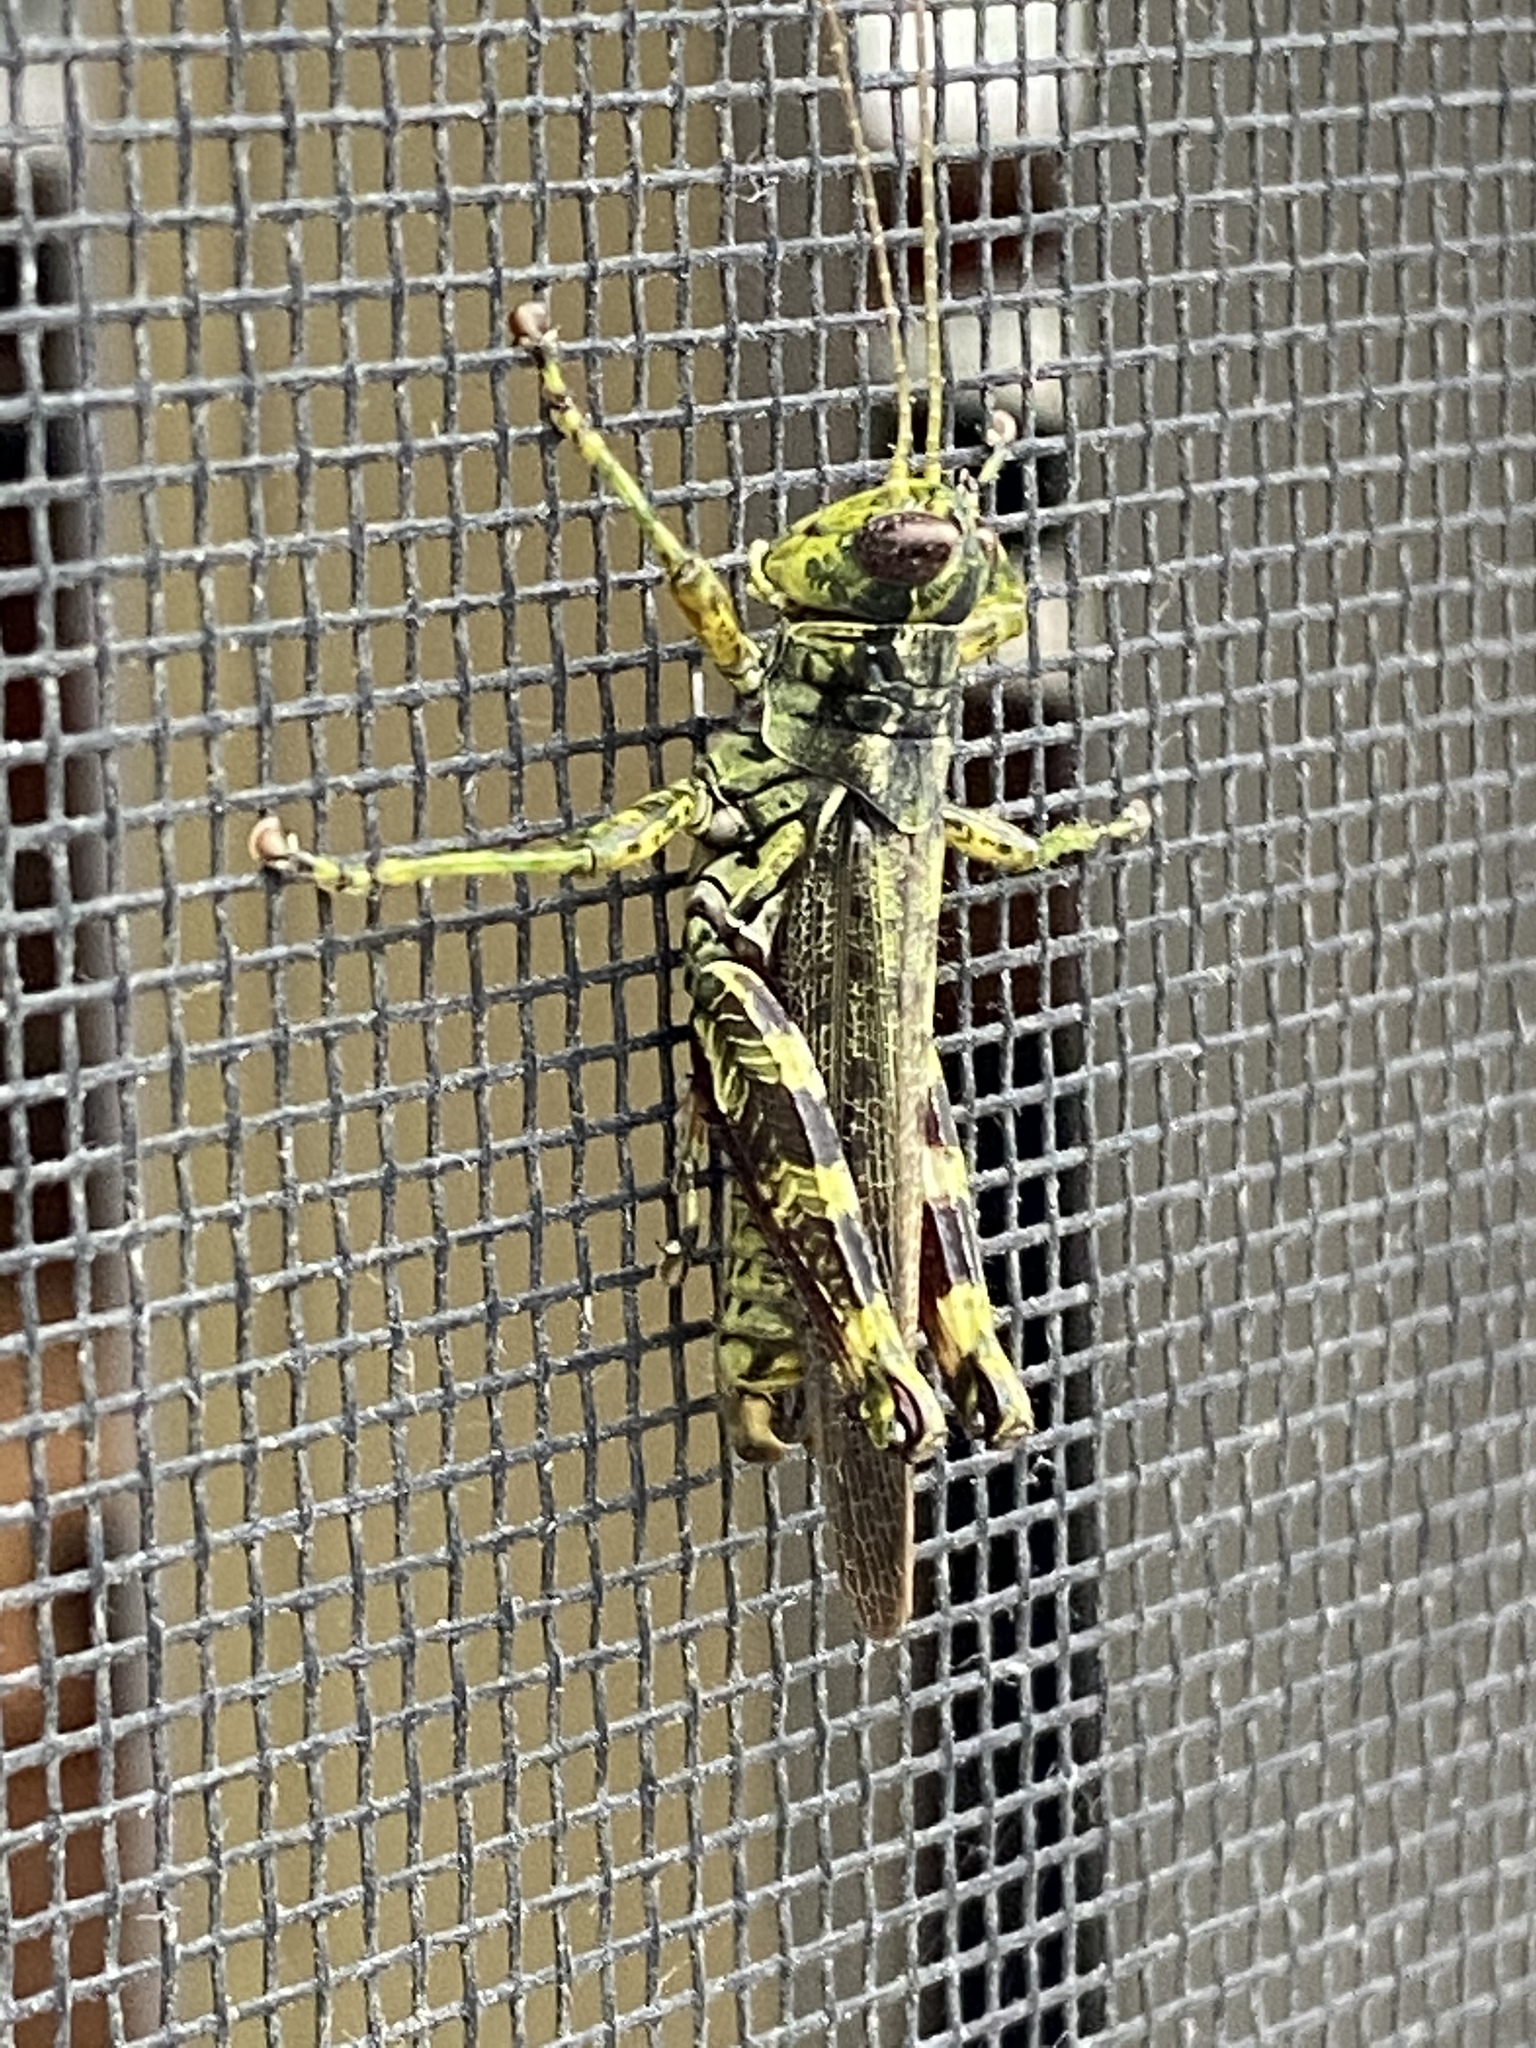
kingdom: Animalia
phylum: Arthropoda
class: Insecta
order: Orthoptera
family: Acrididae
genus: Melanoplus
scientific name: Melanoplus punctulatus
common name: Pine-tree spur-throat grasshopper
